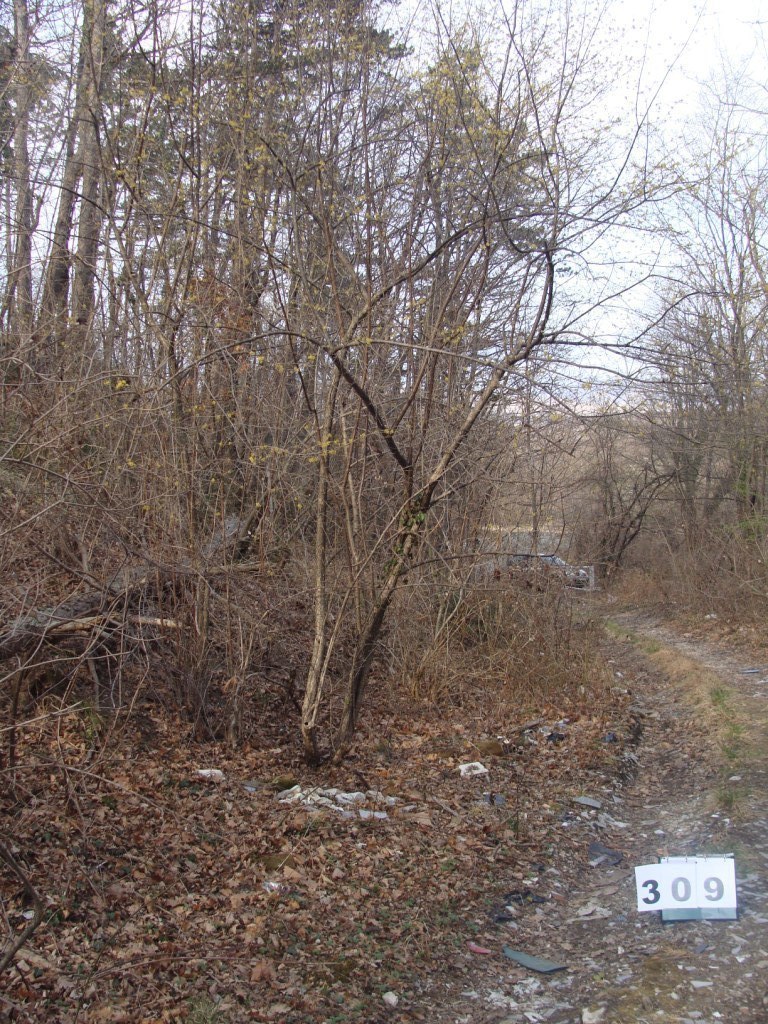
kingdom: Plantae
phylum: Tracheophyta
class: Magnoliopsida
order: Cornales
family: Cornaceae
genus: Cornus
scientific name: Cornus mas
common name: Cornelian-cherry
